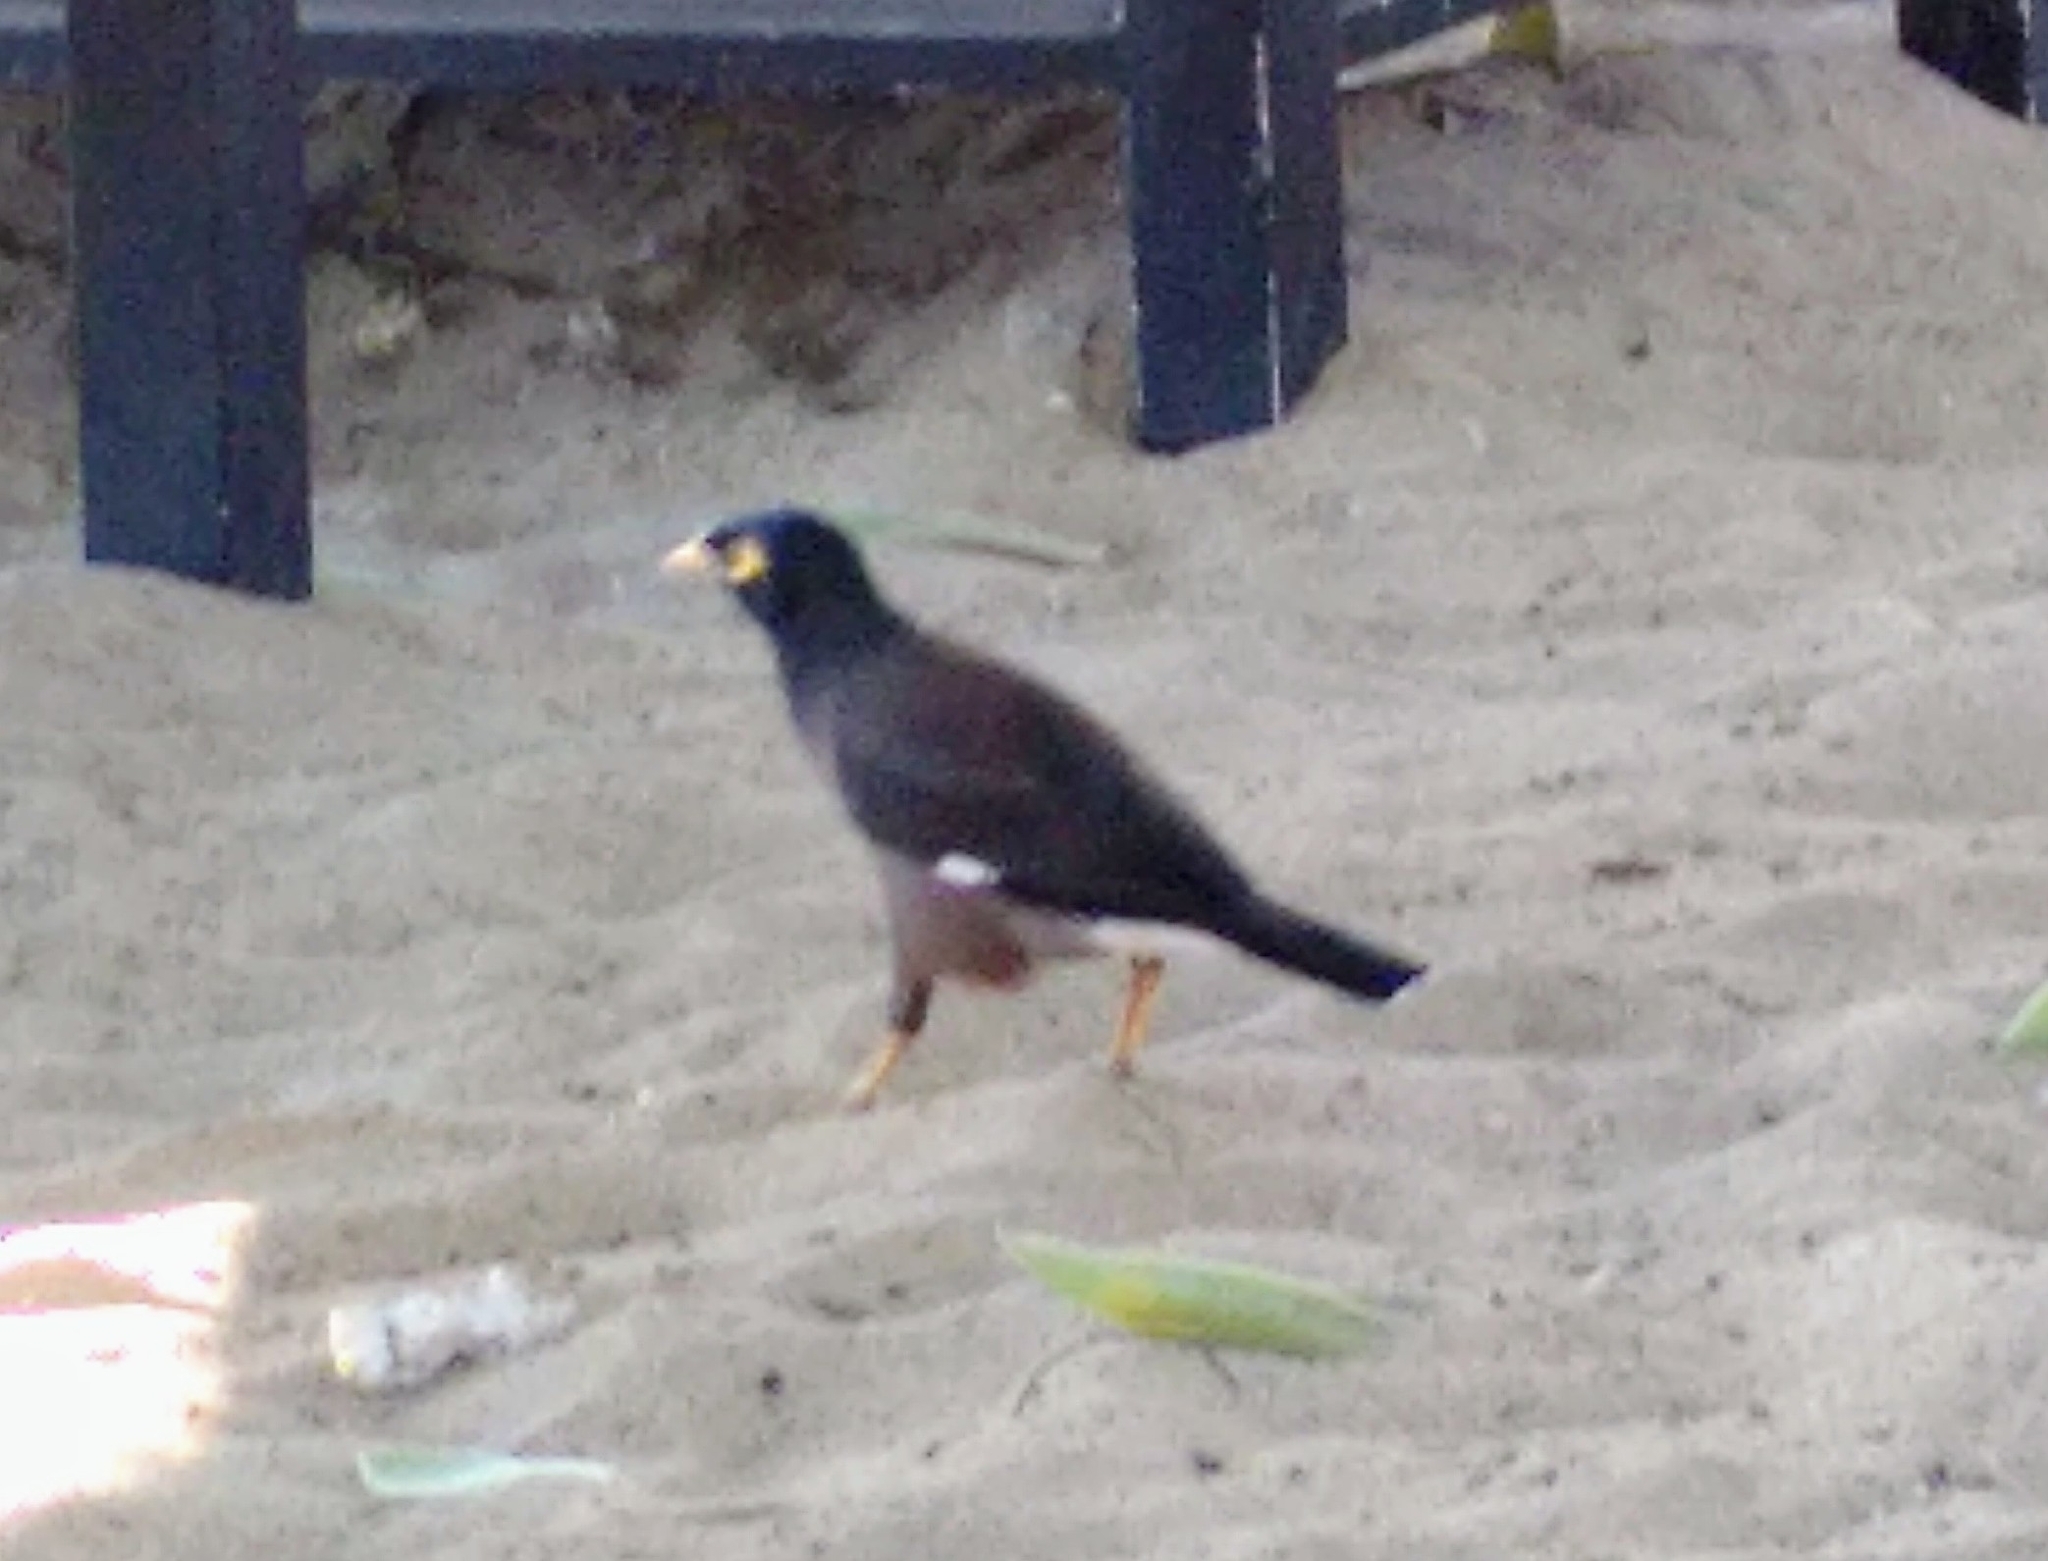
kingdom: Animalia
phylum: Chordata
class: Aves
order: Passeriformes
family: Sturnidae
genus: Acridotheres
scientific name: Acridotheres tristis
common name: Common myna
